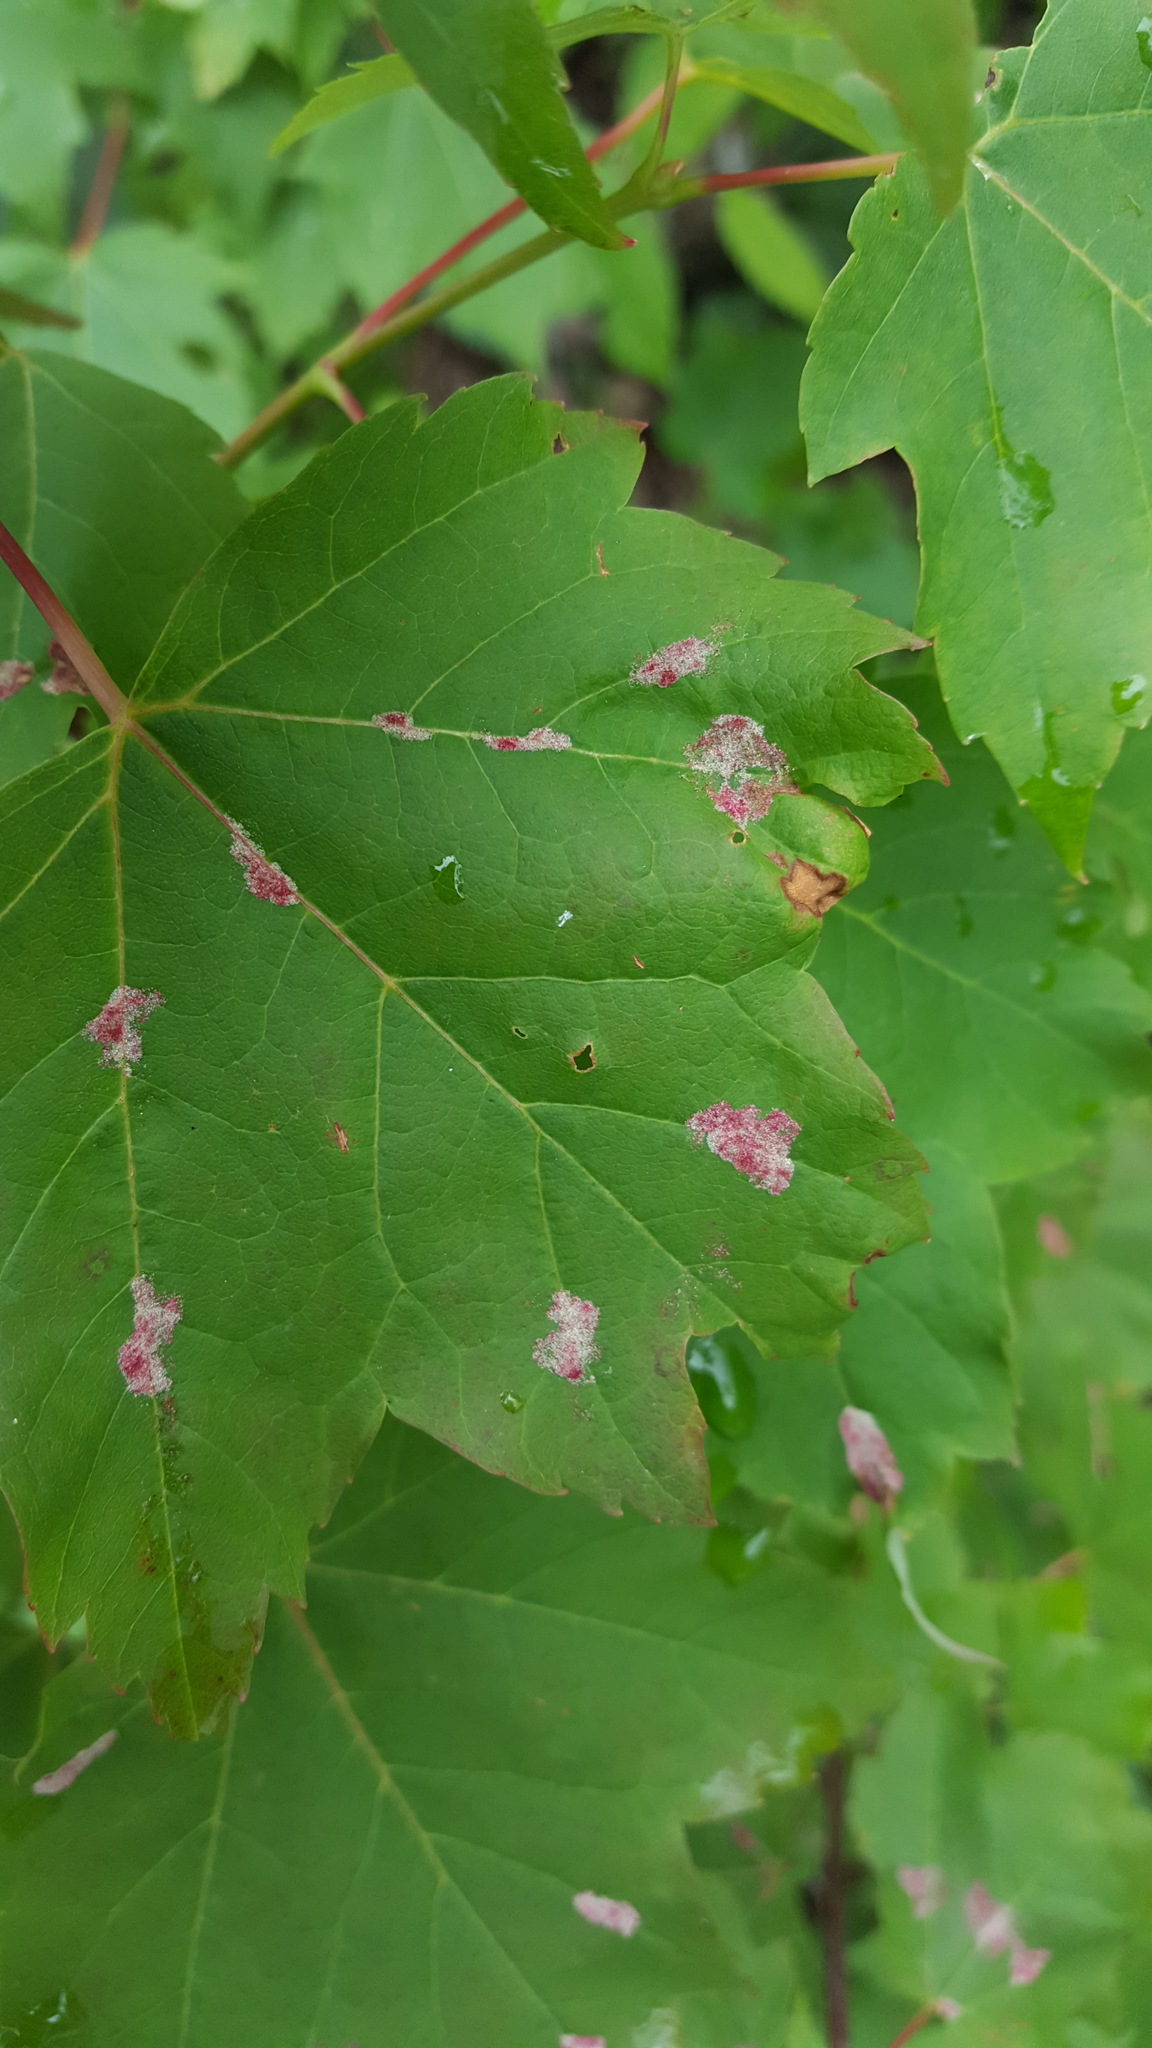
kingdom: Animalia
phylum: Arthropoda
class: Arachnida
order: Trombidiformes
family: Eriophyidae
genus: Aculus
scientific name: Aculus
